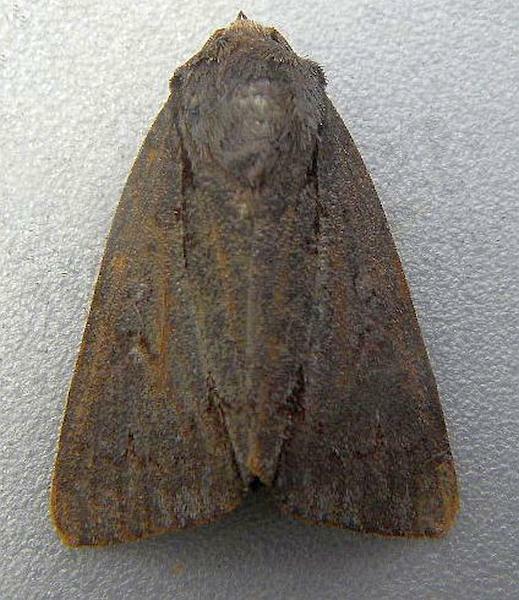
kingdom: Animalia
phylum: Arthropoda
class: Insecta
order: Lepidoptera
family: Noctuidae
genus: Acronicta
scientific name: Acronicta tritona
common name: Triton dagger
